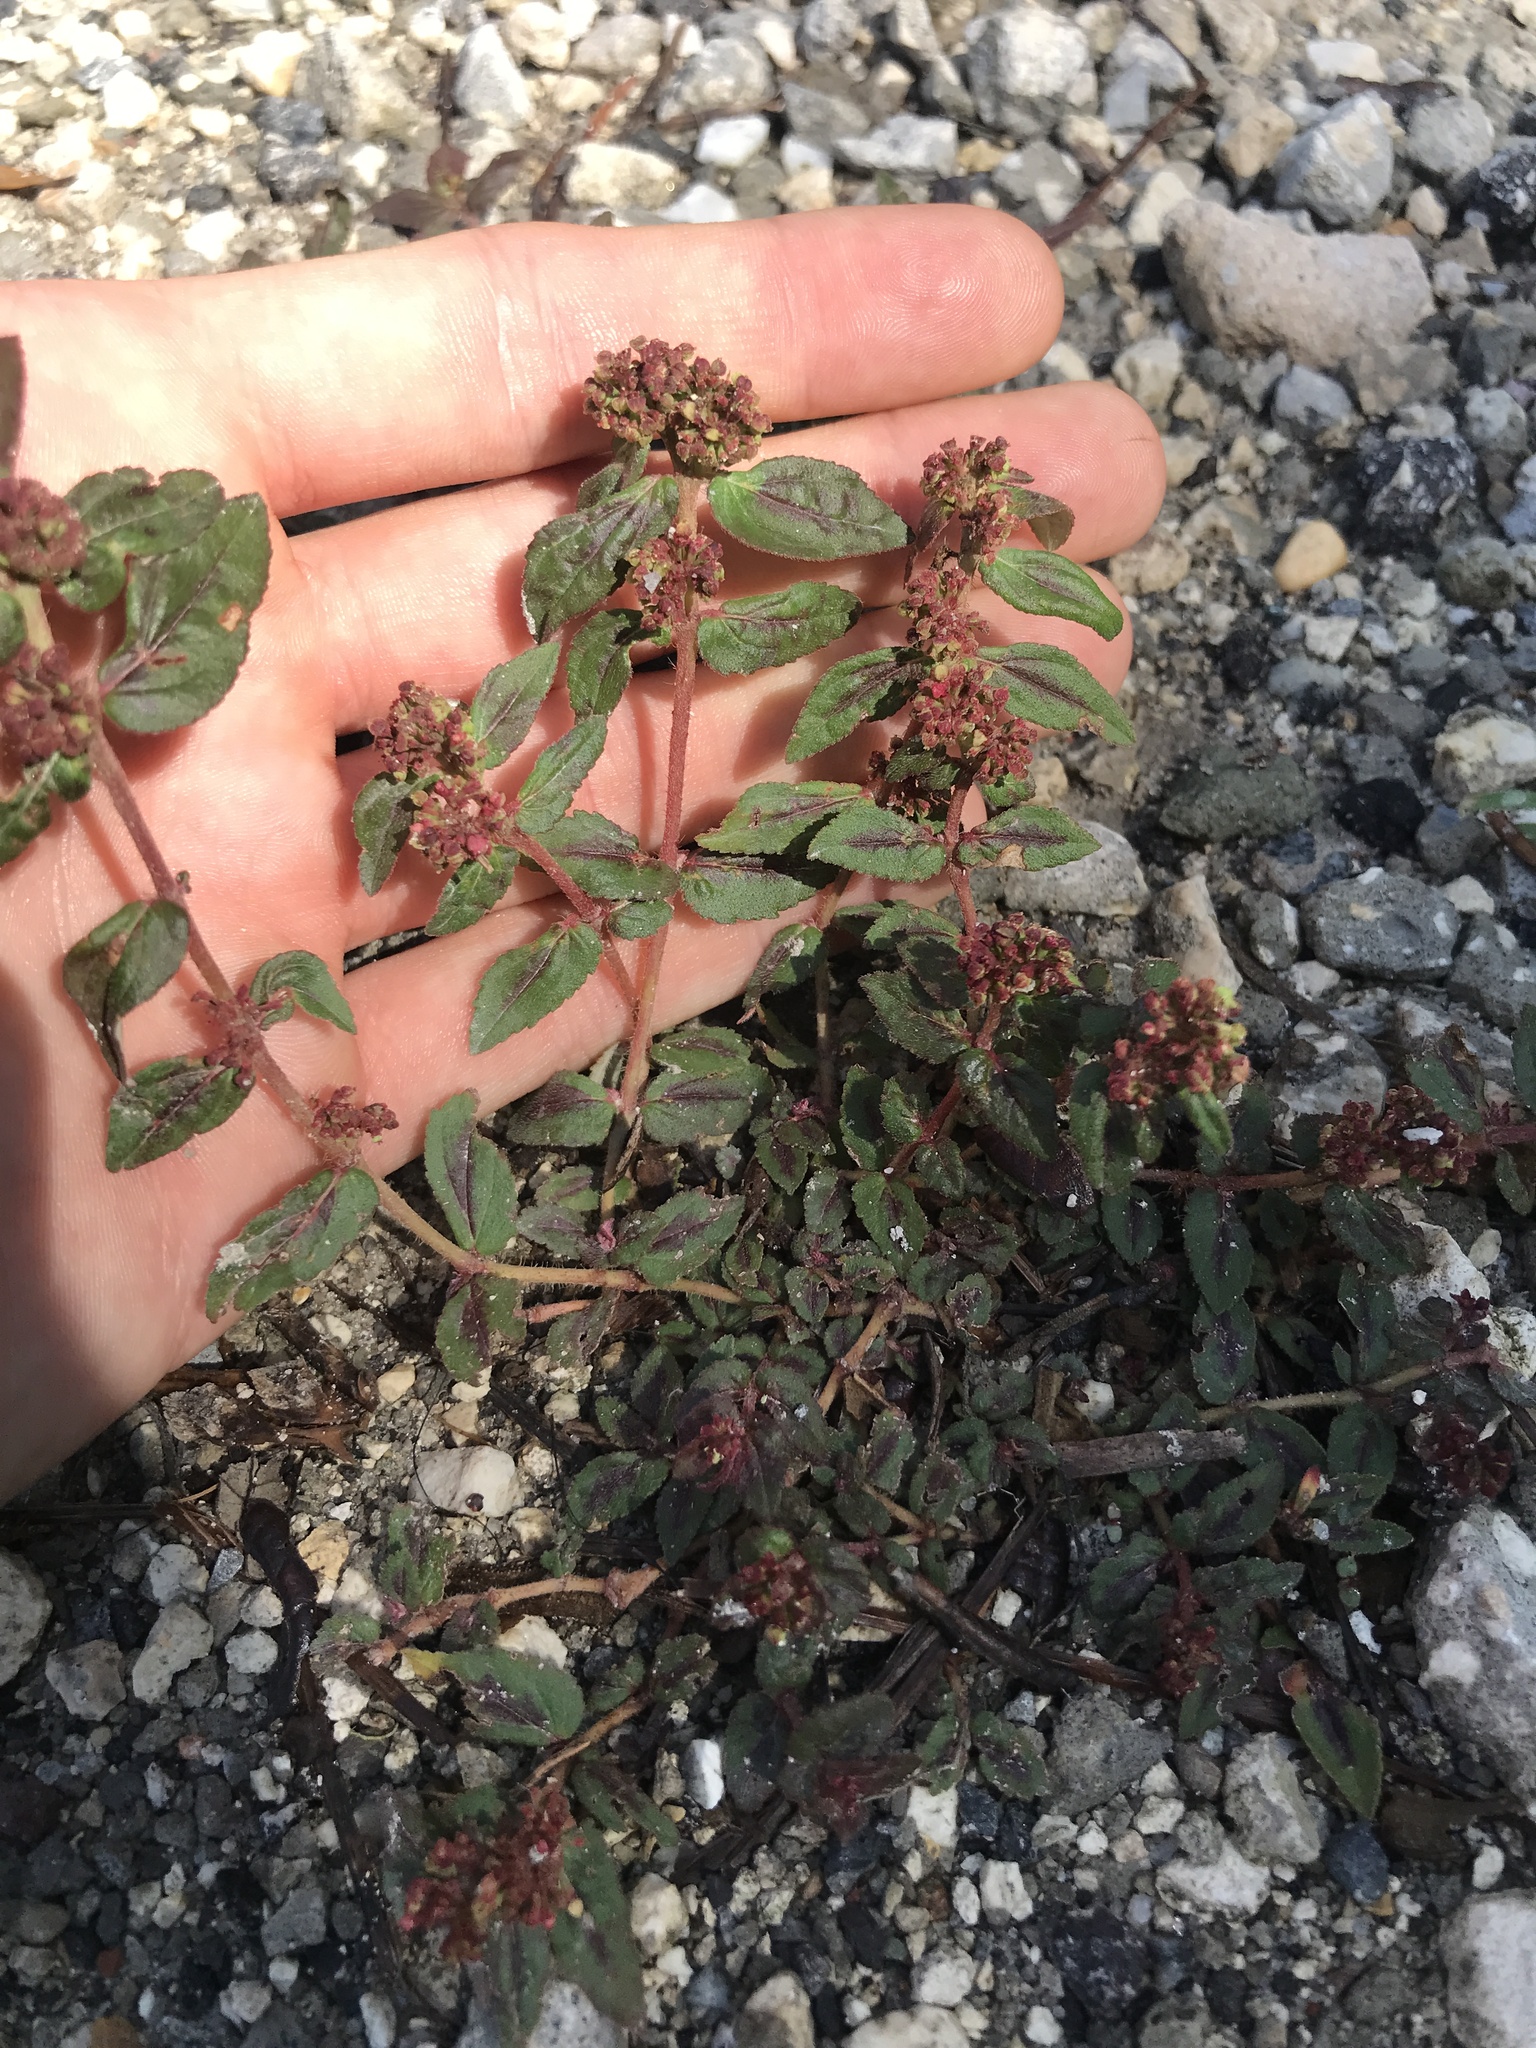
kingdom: Plantae
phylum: Tracheophyta
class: Magnoliopsida
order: Malpighiales
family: Euphorbiaceae
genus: Euphorbia
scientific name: Euphorbia hirta
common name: Pillpod sandmat
